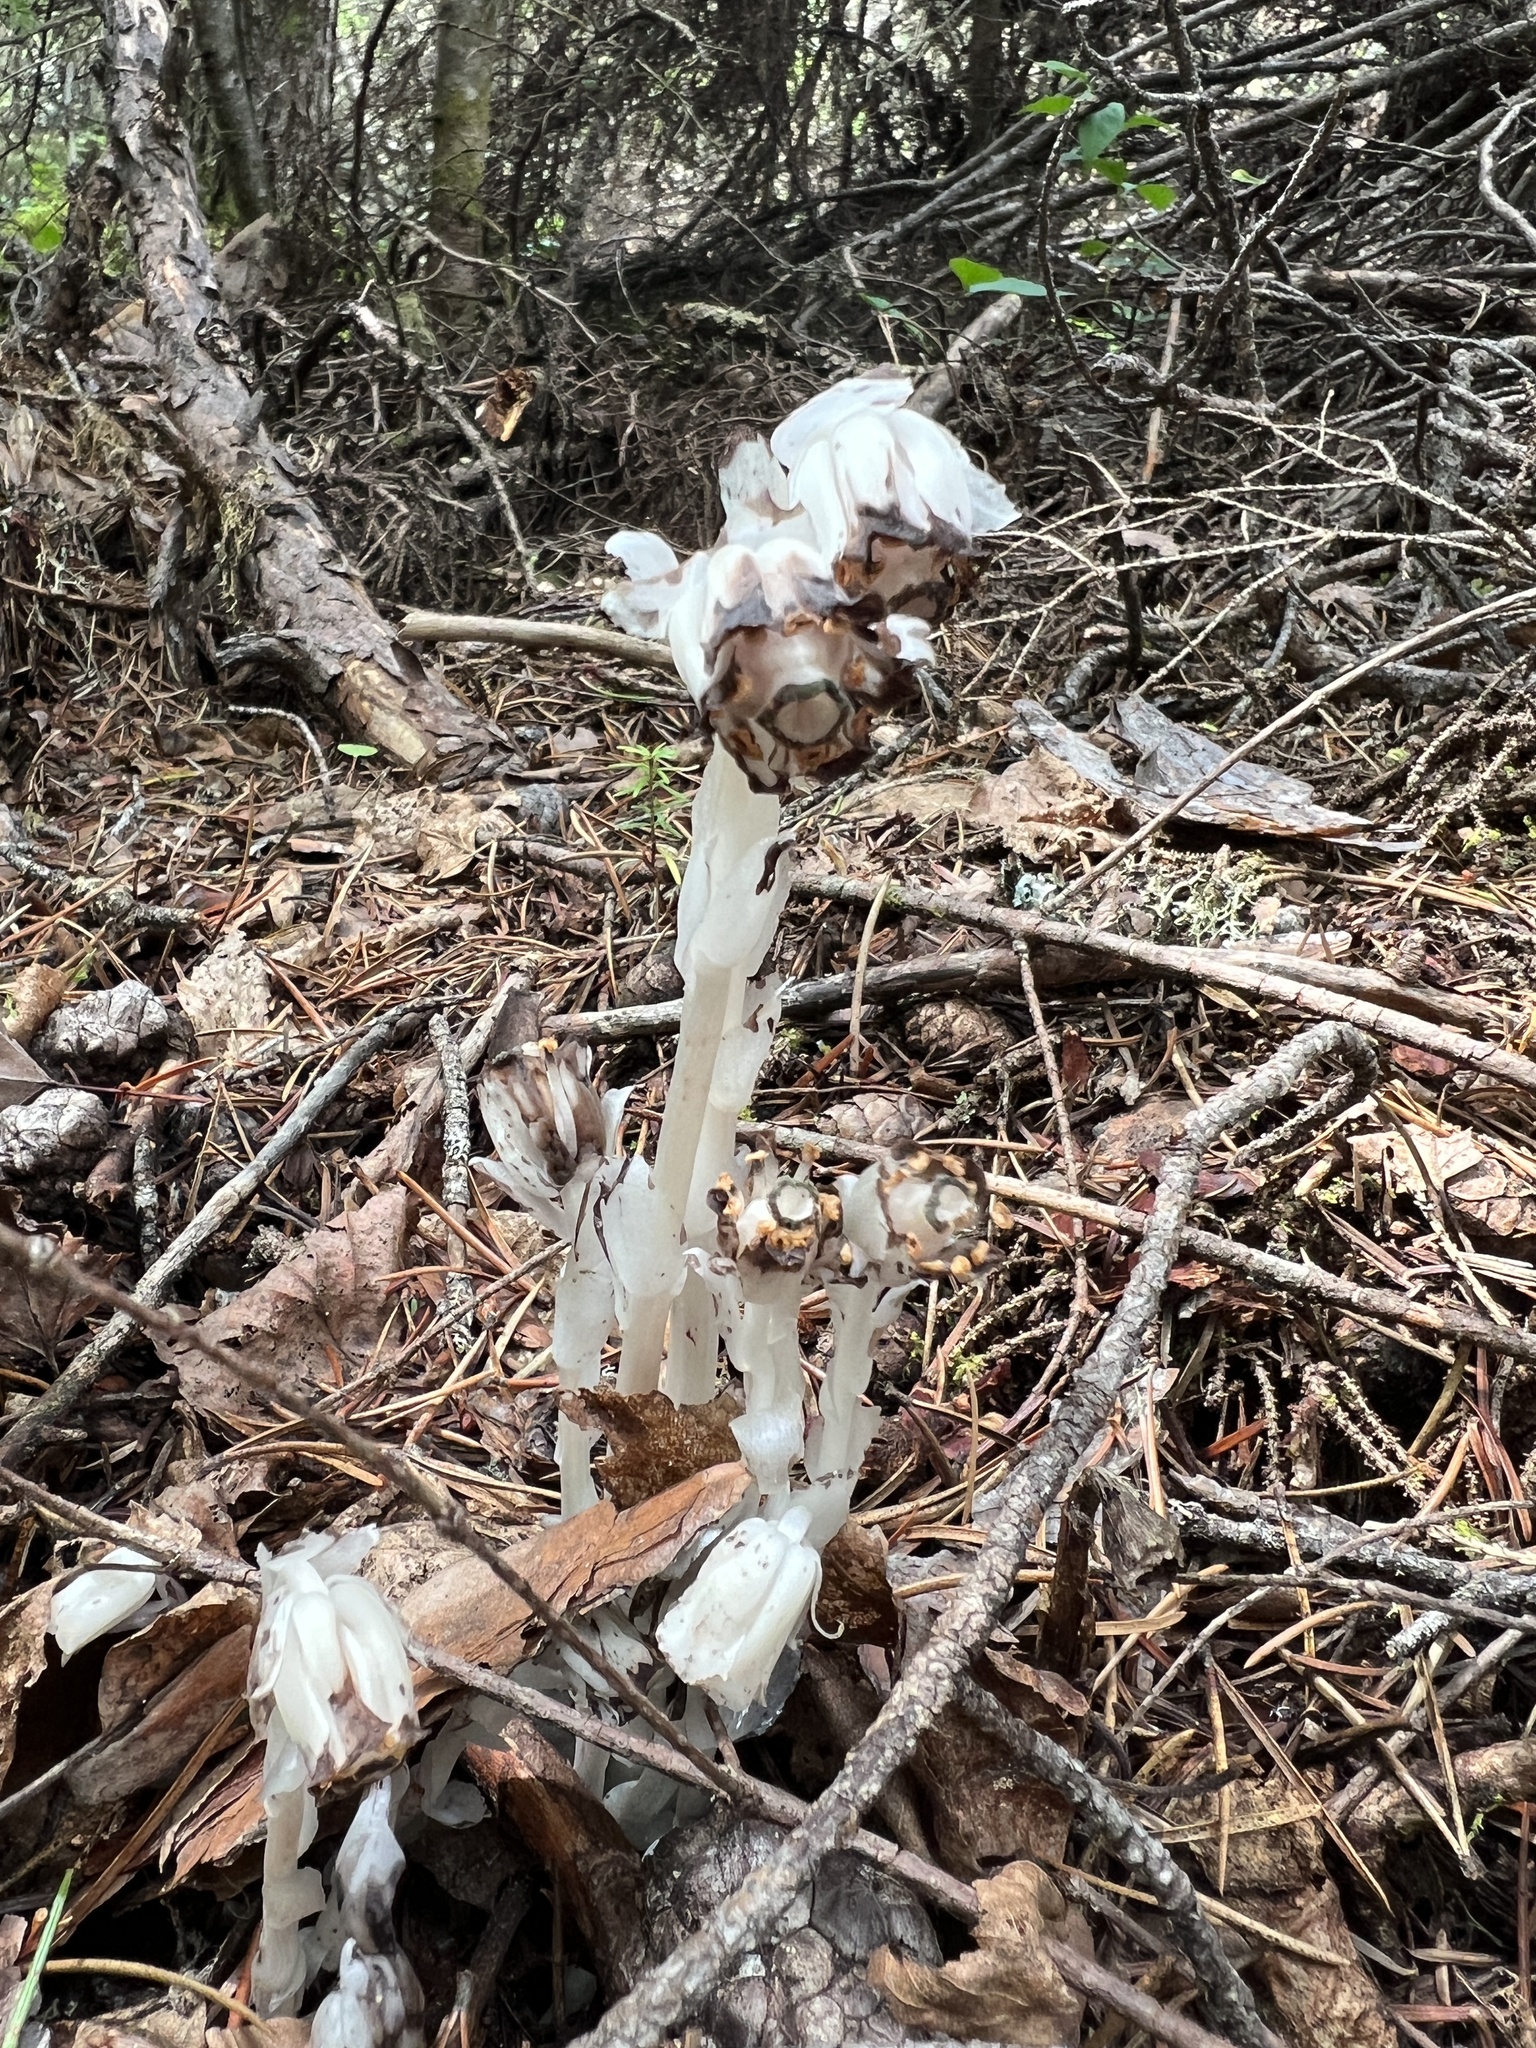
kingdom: Plantae
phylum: Tracheophyta
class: Magnoliopsida
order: Ericales
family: Ericaceae
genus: Monotropa
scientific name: Monotropa uniflora
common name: Convulsion root
